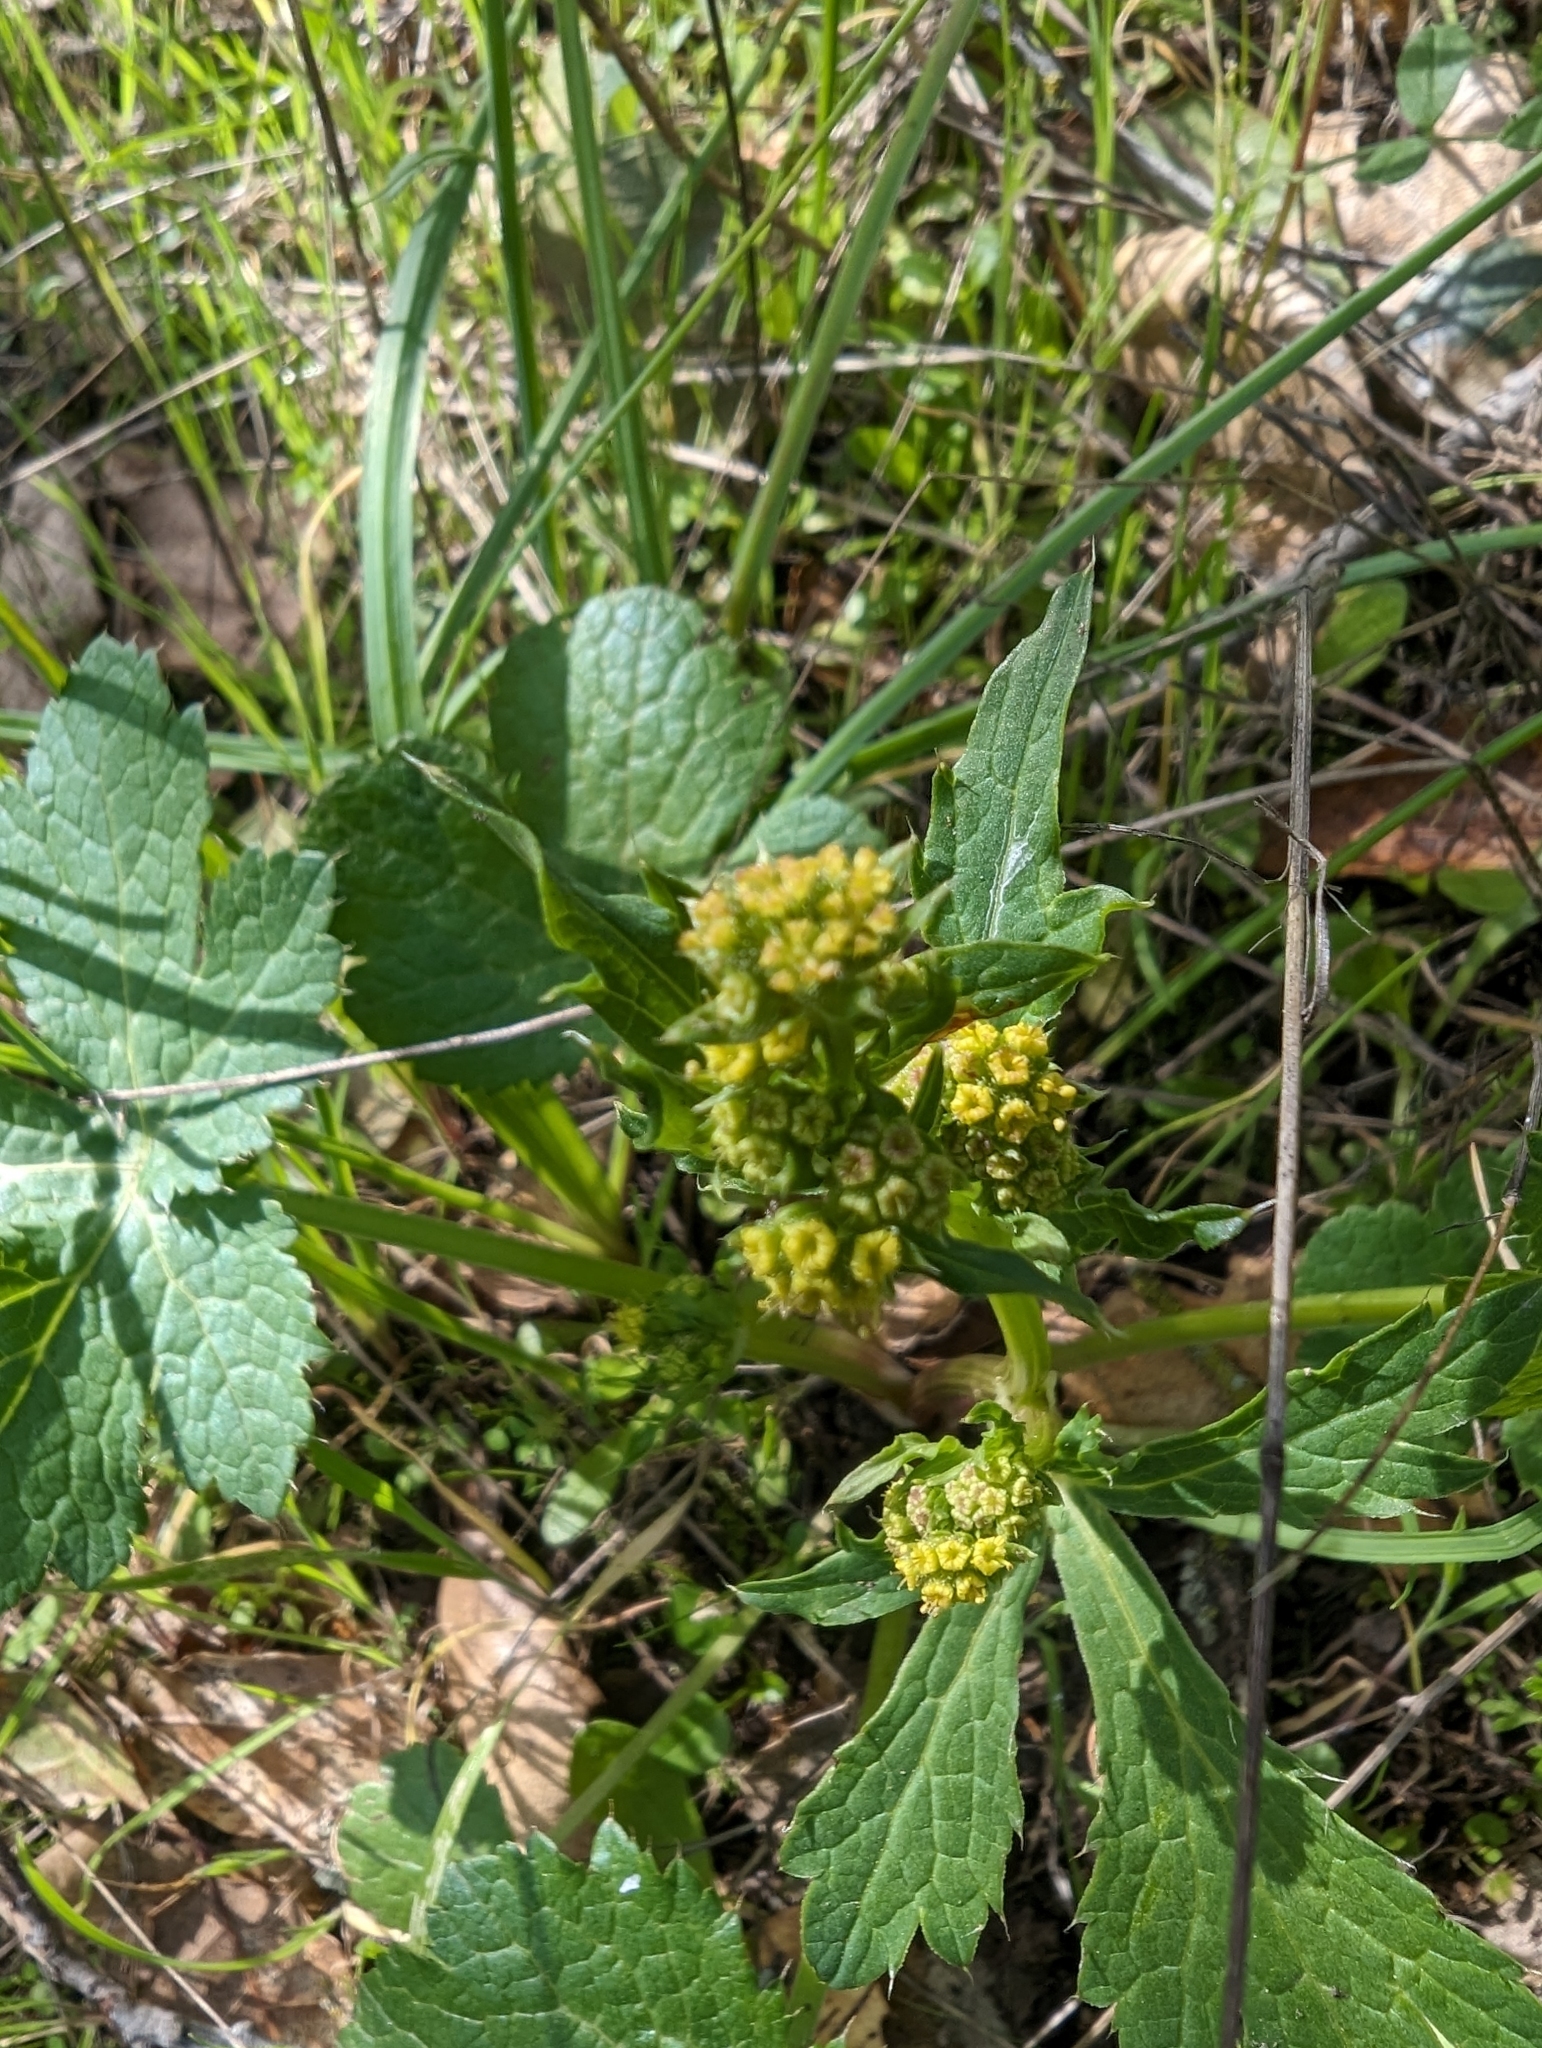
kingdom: Plantae
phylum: Tracheophyta
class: Magnoliopsida
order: Apiales
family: Apiaceae
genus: Sanicula
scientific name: Sanicula crassicaulis
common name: Western snakeroot
